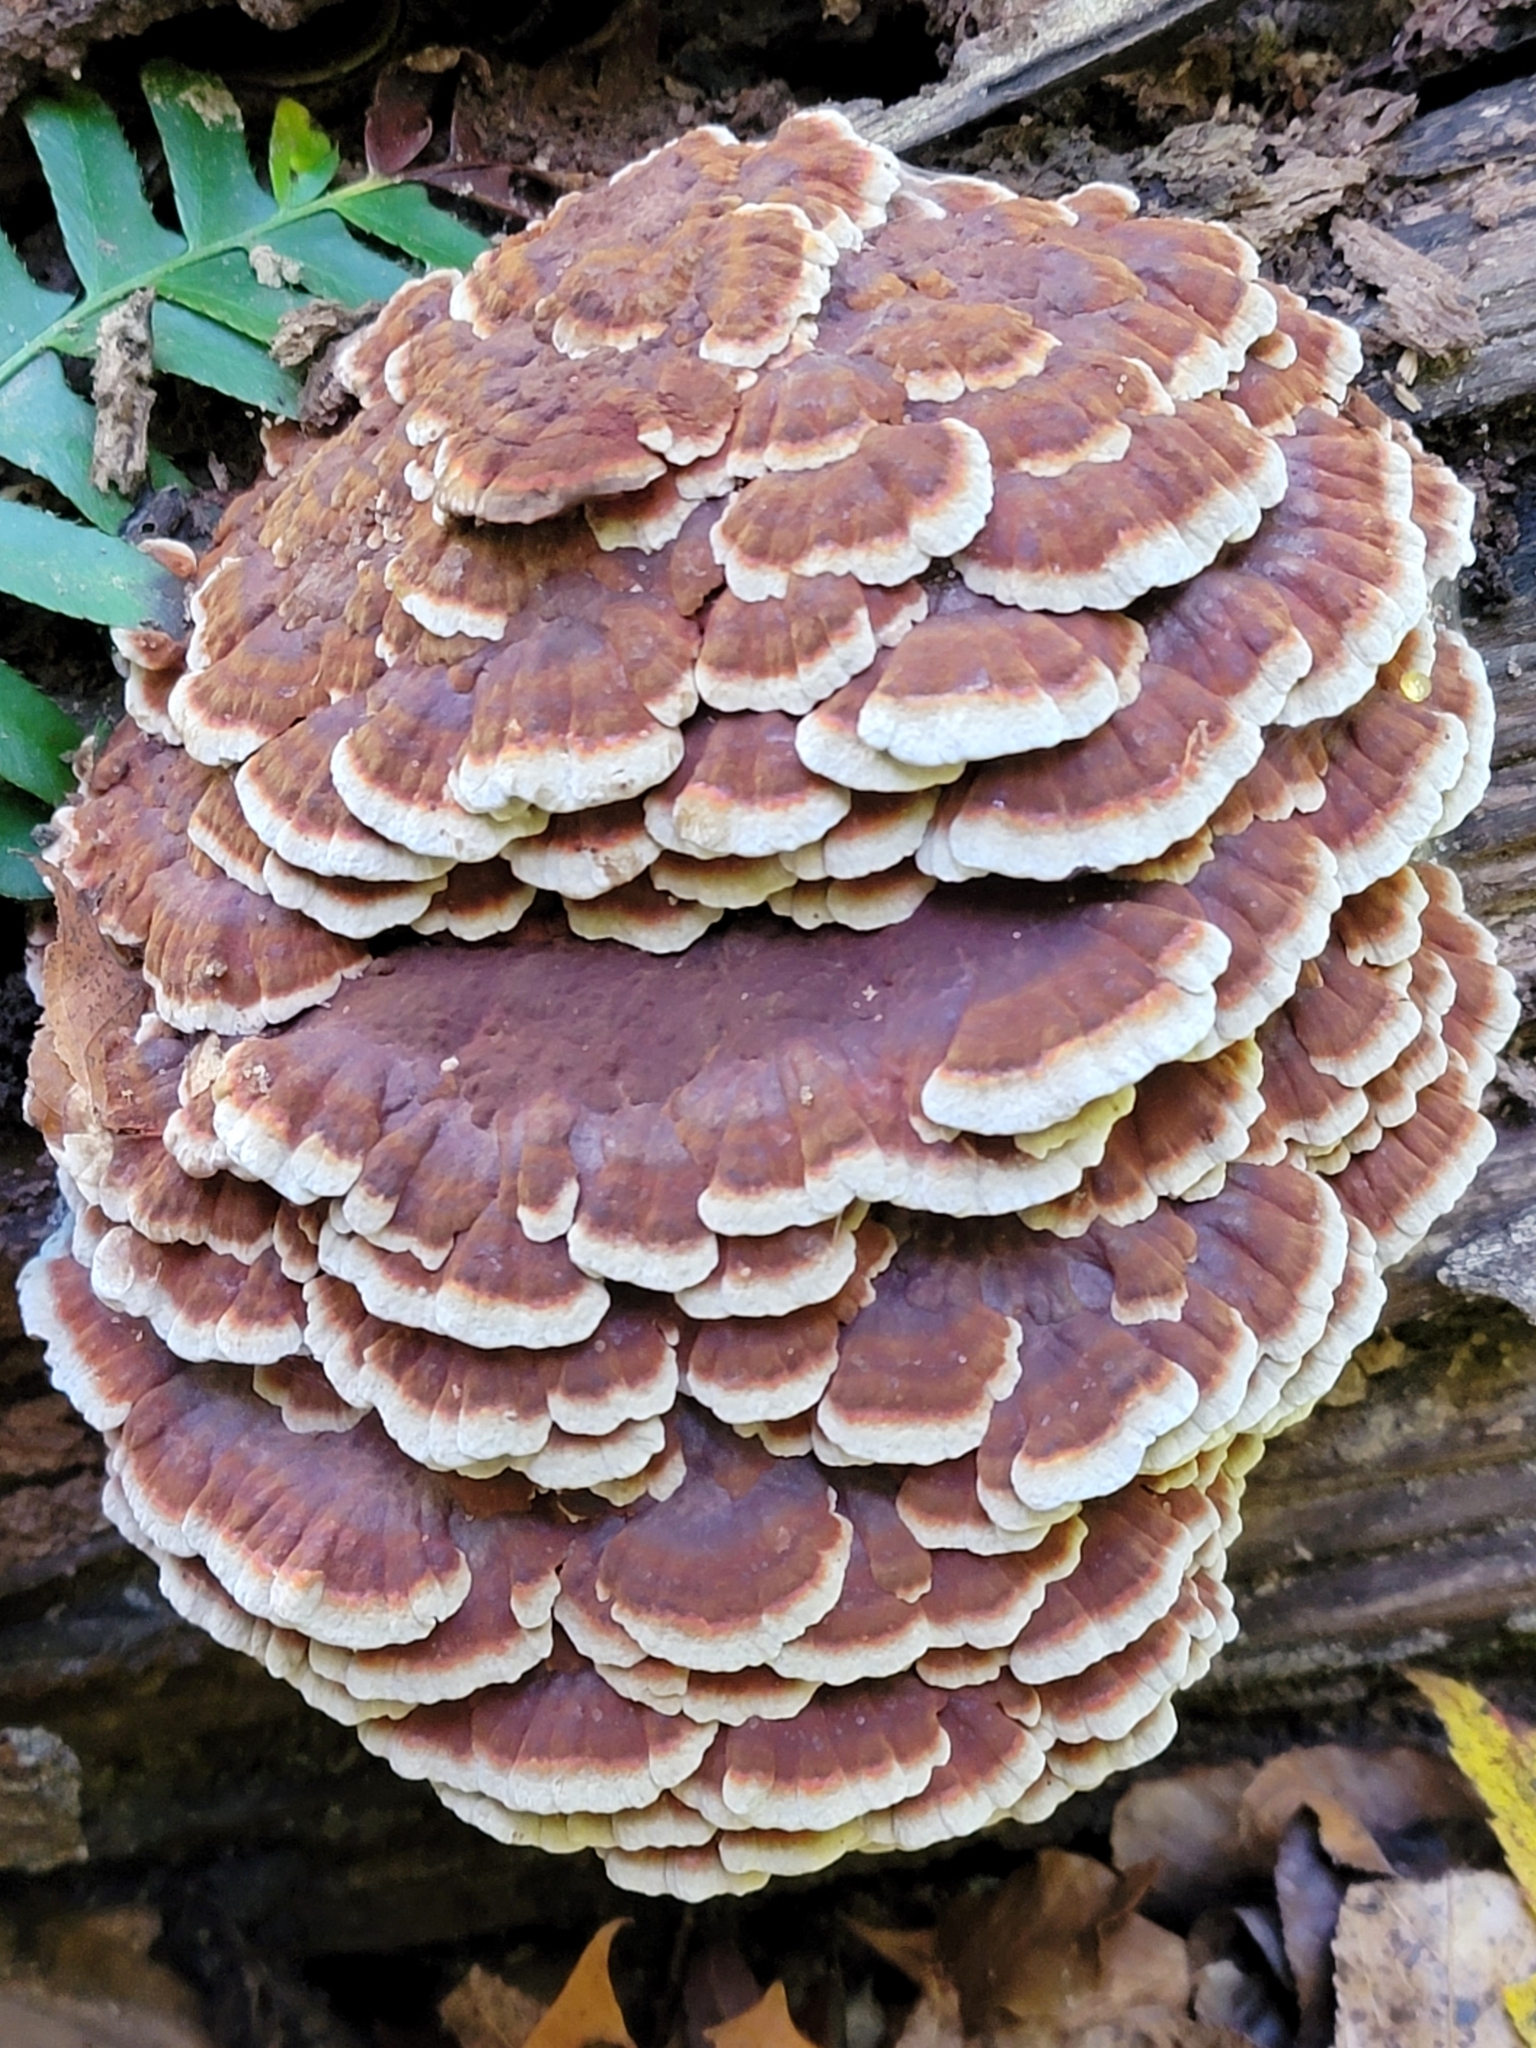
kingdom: Fungi
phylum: Basidiomycota
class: Agaricomycetes
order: Polyporales
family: Polyporaceae
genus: Globifomes
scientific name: Globifomes graveolens
